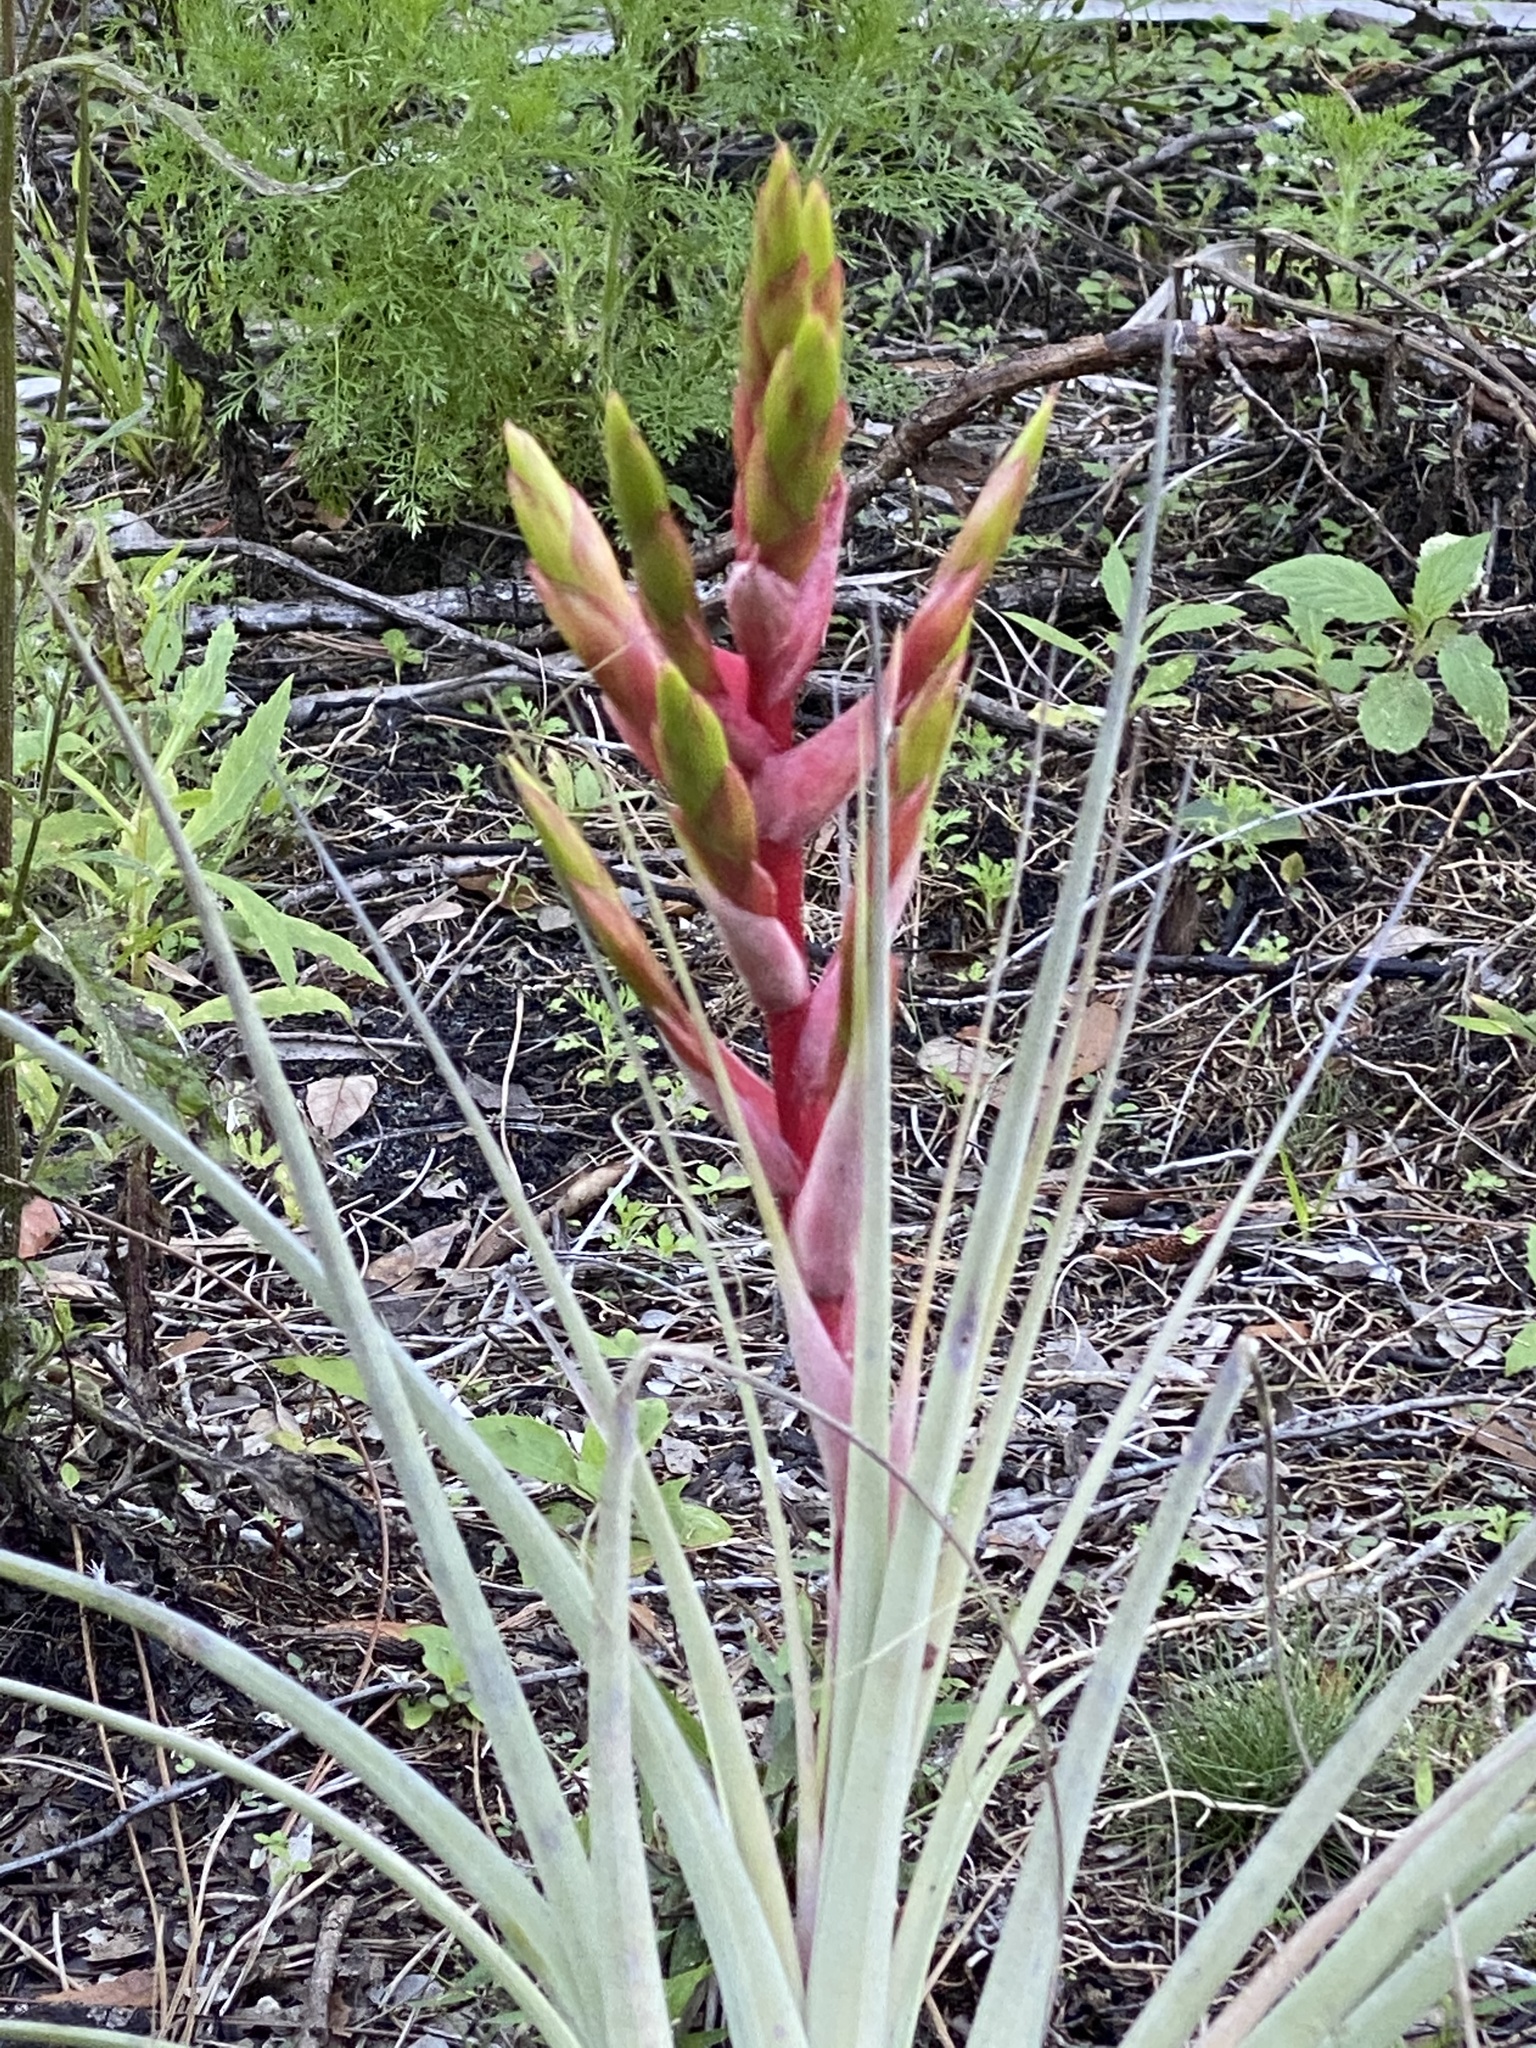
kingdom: Plantae
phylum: Tracheophyta
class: Liliopsida
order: Poales
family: Bromeliaceae
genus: Tillandsia
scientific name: Tillandsia fasciculata
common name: Giant airplant
